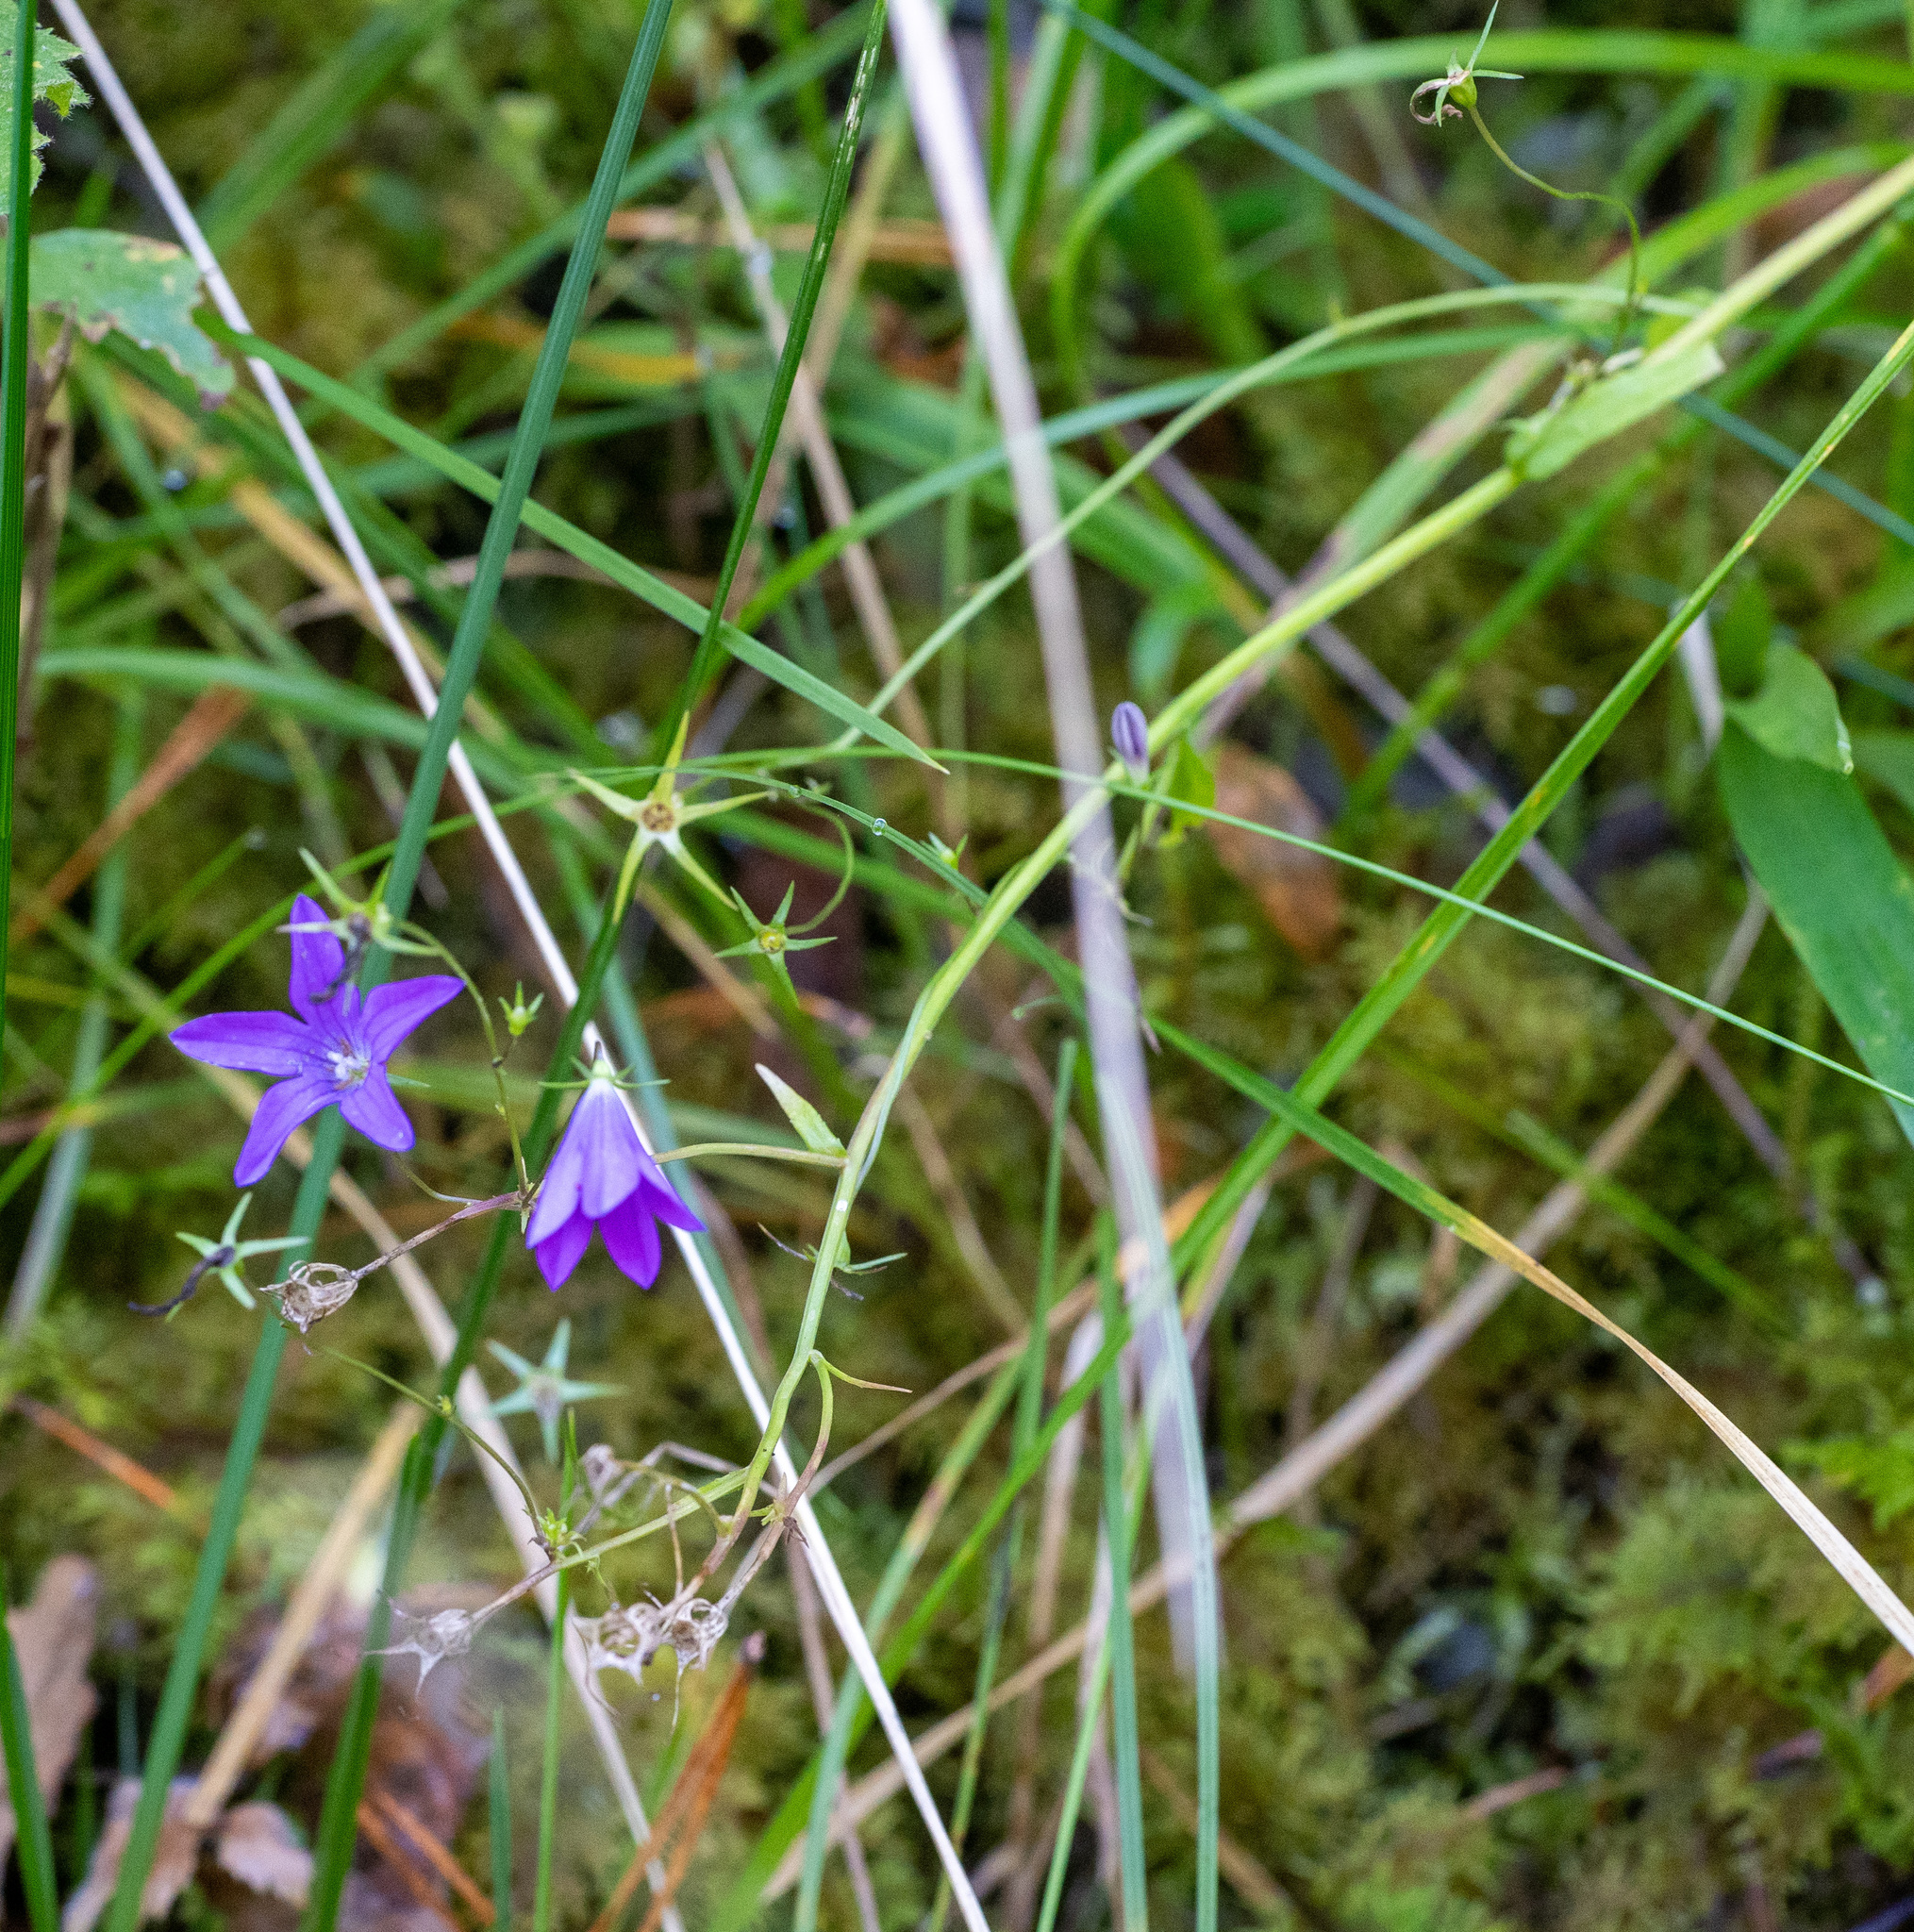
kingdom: Plantae
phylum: Tracheophyta
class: Magnoliopsida
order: Asterales
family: Campanulaceae
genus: Campanula
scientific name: Campanula patula
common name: Spreading bellflower
